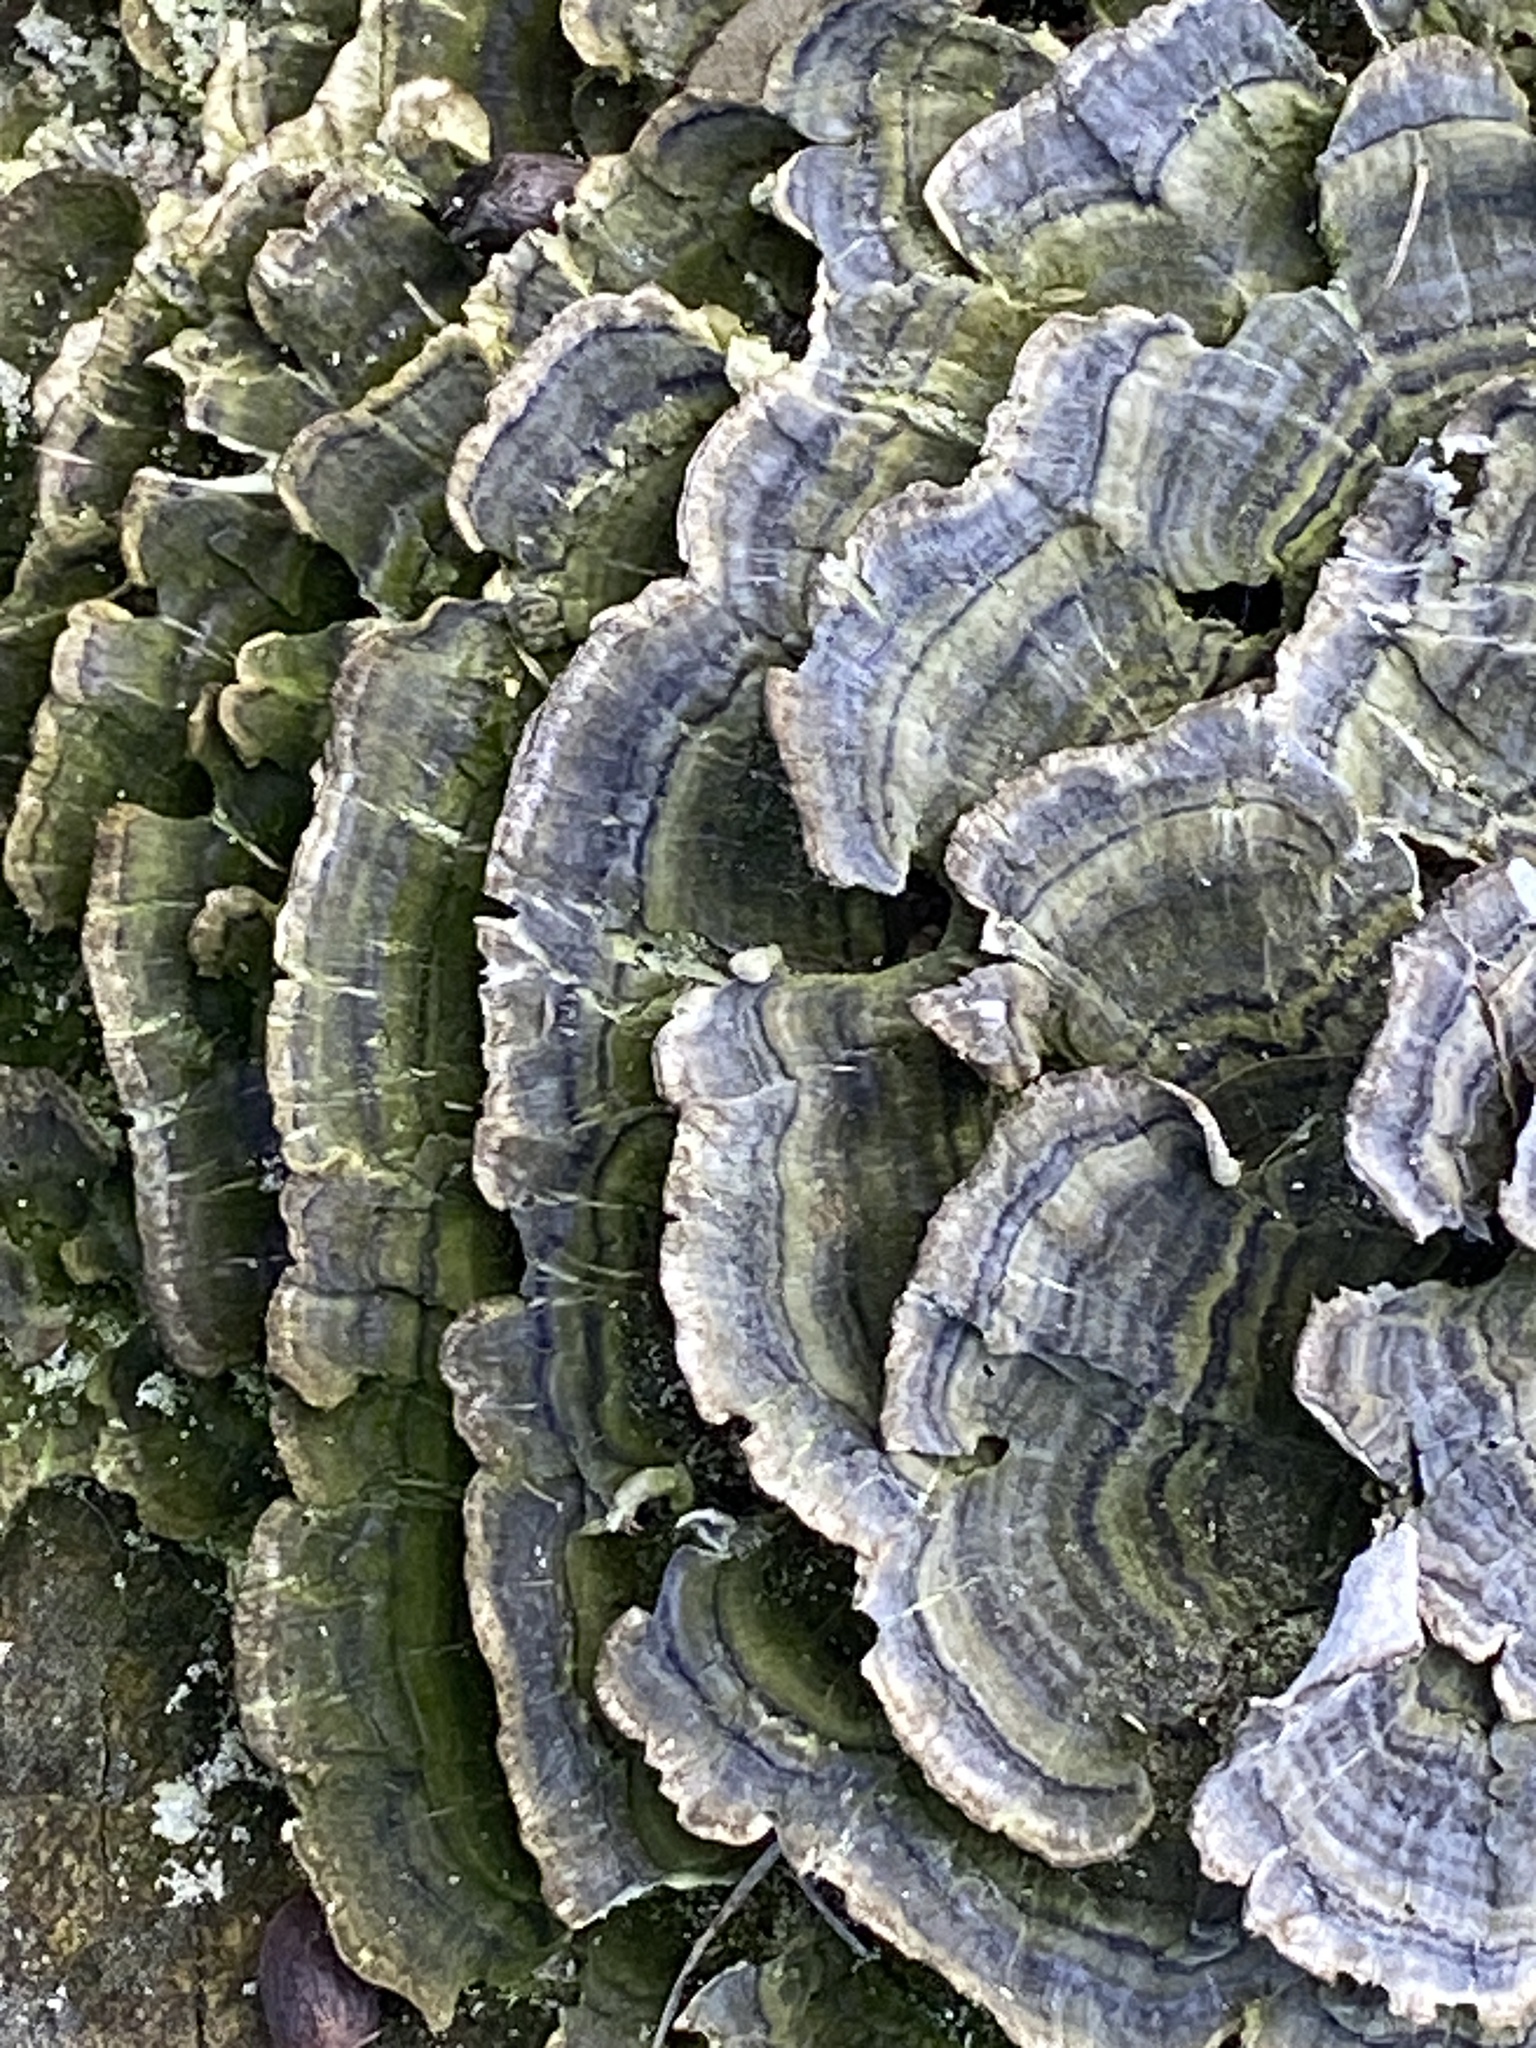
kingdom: Fungi
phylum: Basidiomycota
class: Agaricomycetes
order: Polyporales
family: Polyporaceae
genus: Trametes
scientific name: Trametes versicolor
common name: Turkeytail
